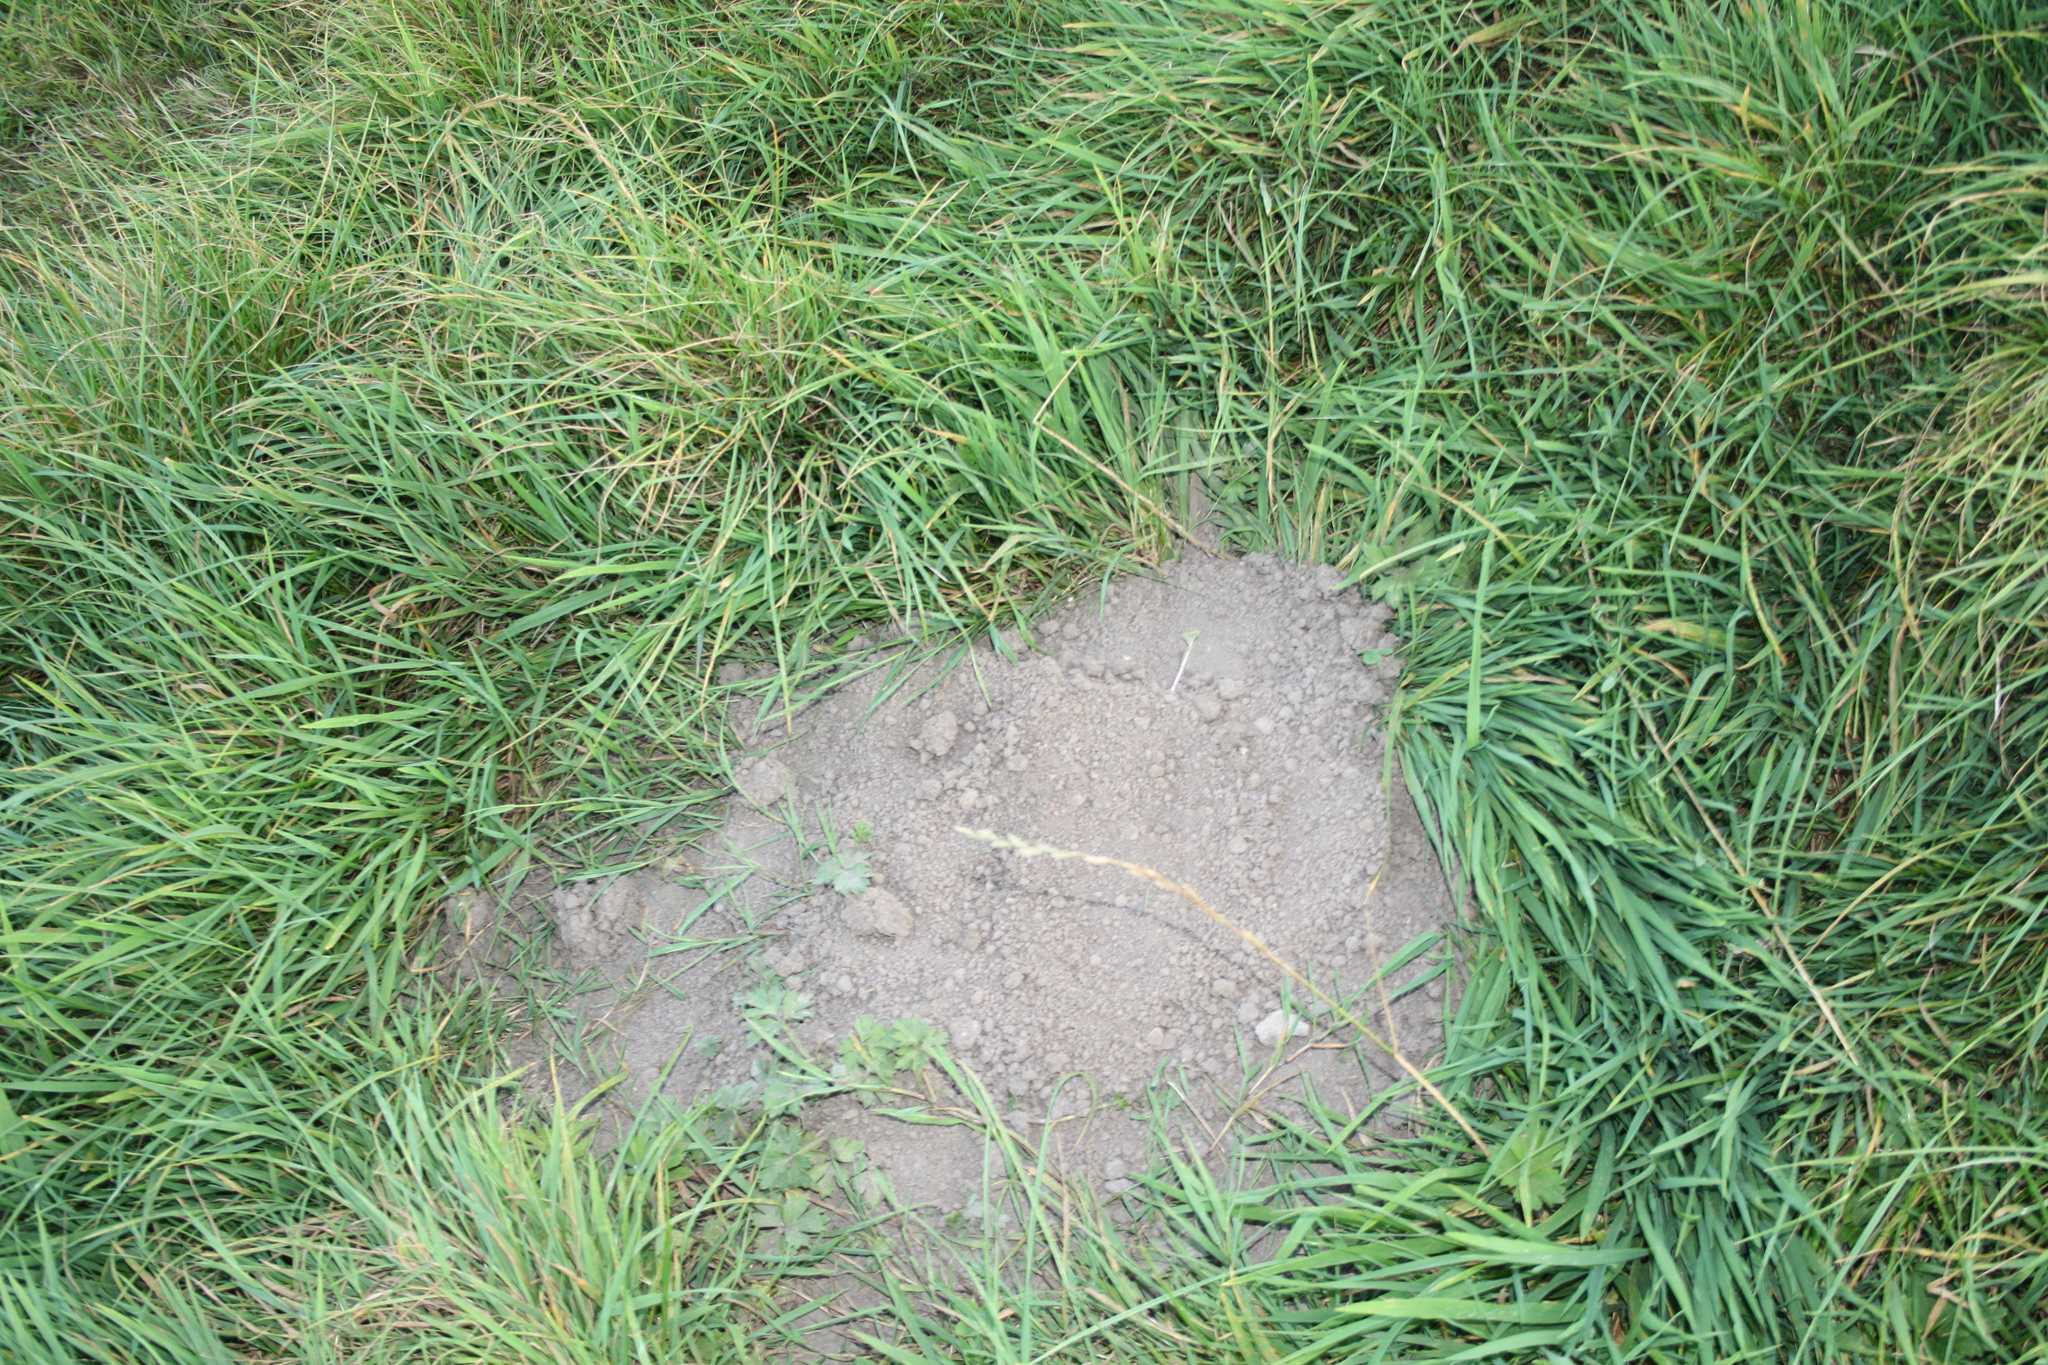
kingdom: Animalia
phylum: Chordata
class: Mammalia
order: Soricomorpha
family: Talpidae
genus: Talpa
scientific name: Talpa europaea
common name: European mole
